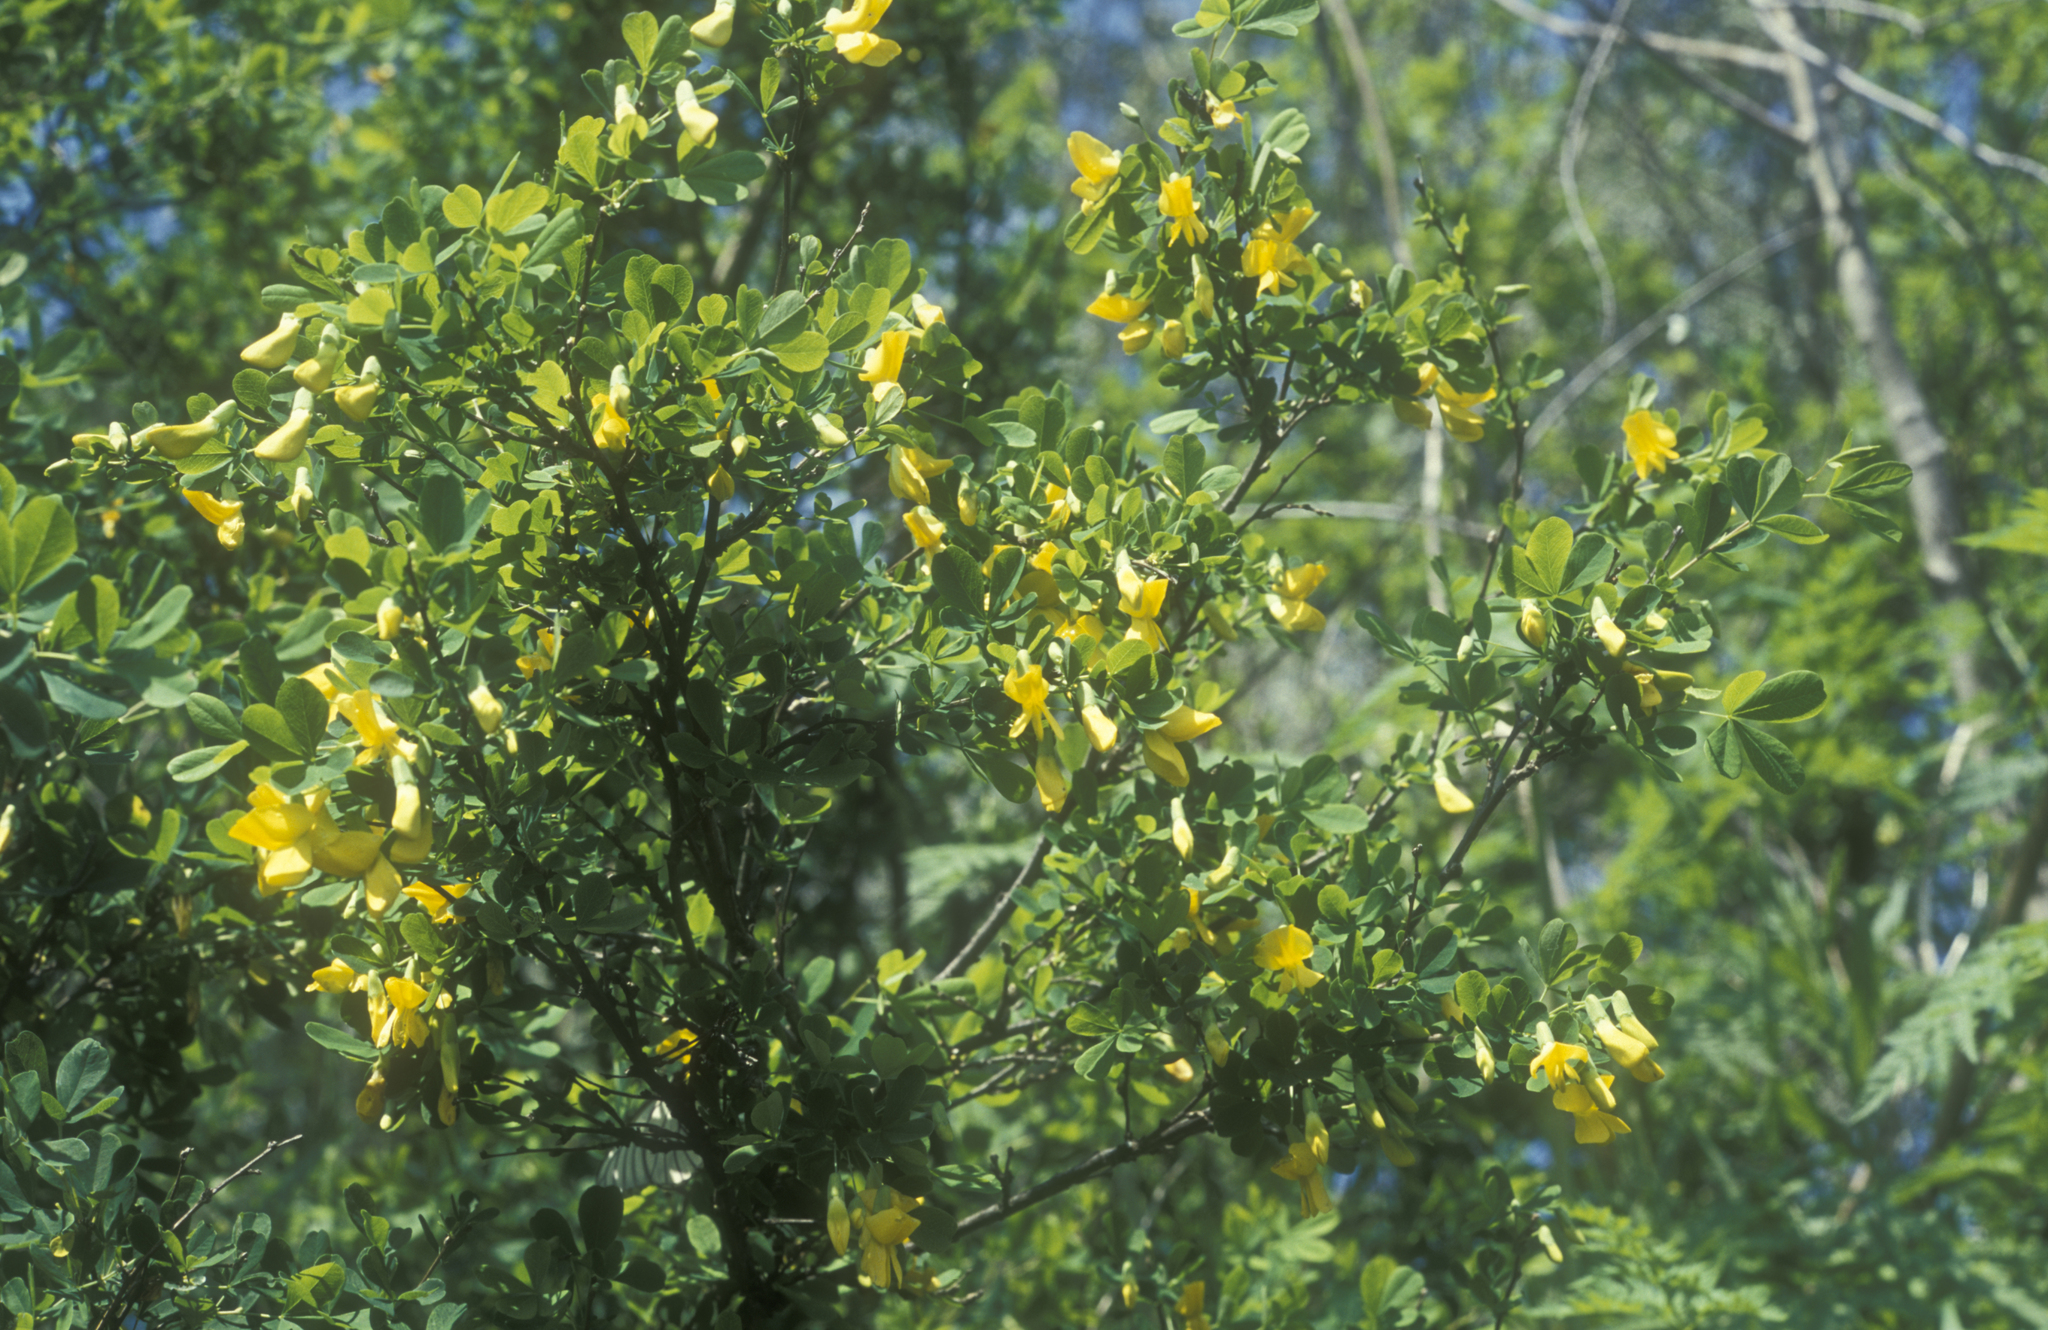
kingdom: Plantae
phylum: Tracheophyta
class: Magnoliopsida
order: Fabales
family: Fabaceae
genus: Caragana
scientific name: Caragana frutex
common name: Russian peashrub
